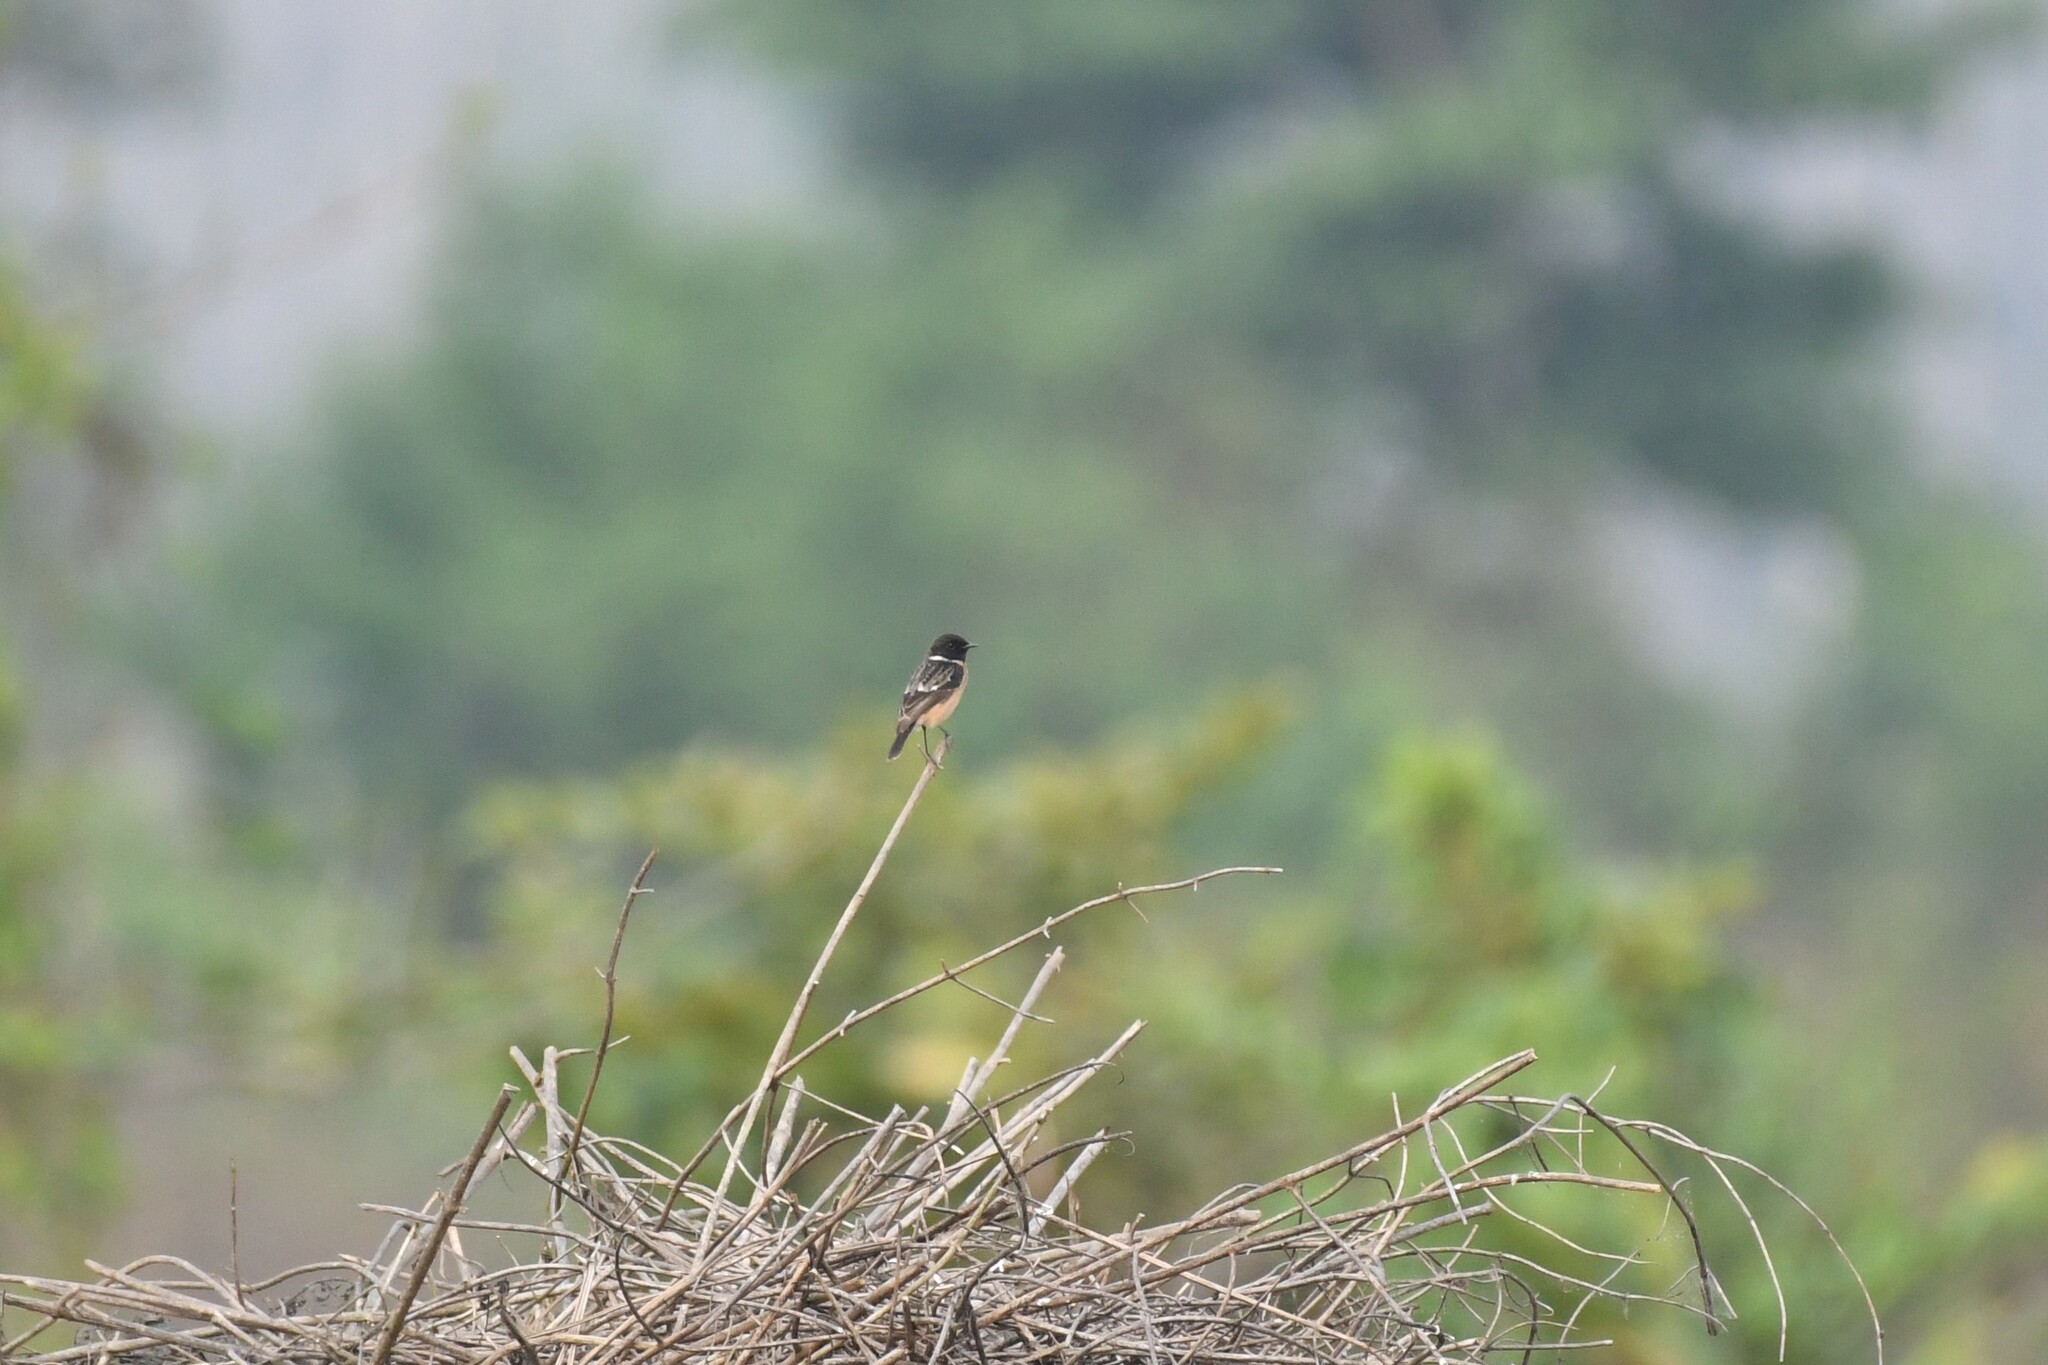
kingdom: Animalia
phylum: Chordata
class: Aves
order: Passeriformes
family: Muscicapidae
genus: Saxicola
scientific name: Saxicola maurus
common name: Siberian stonechat
